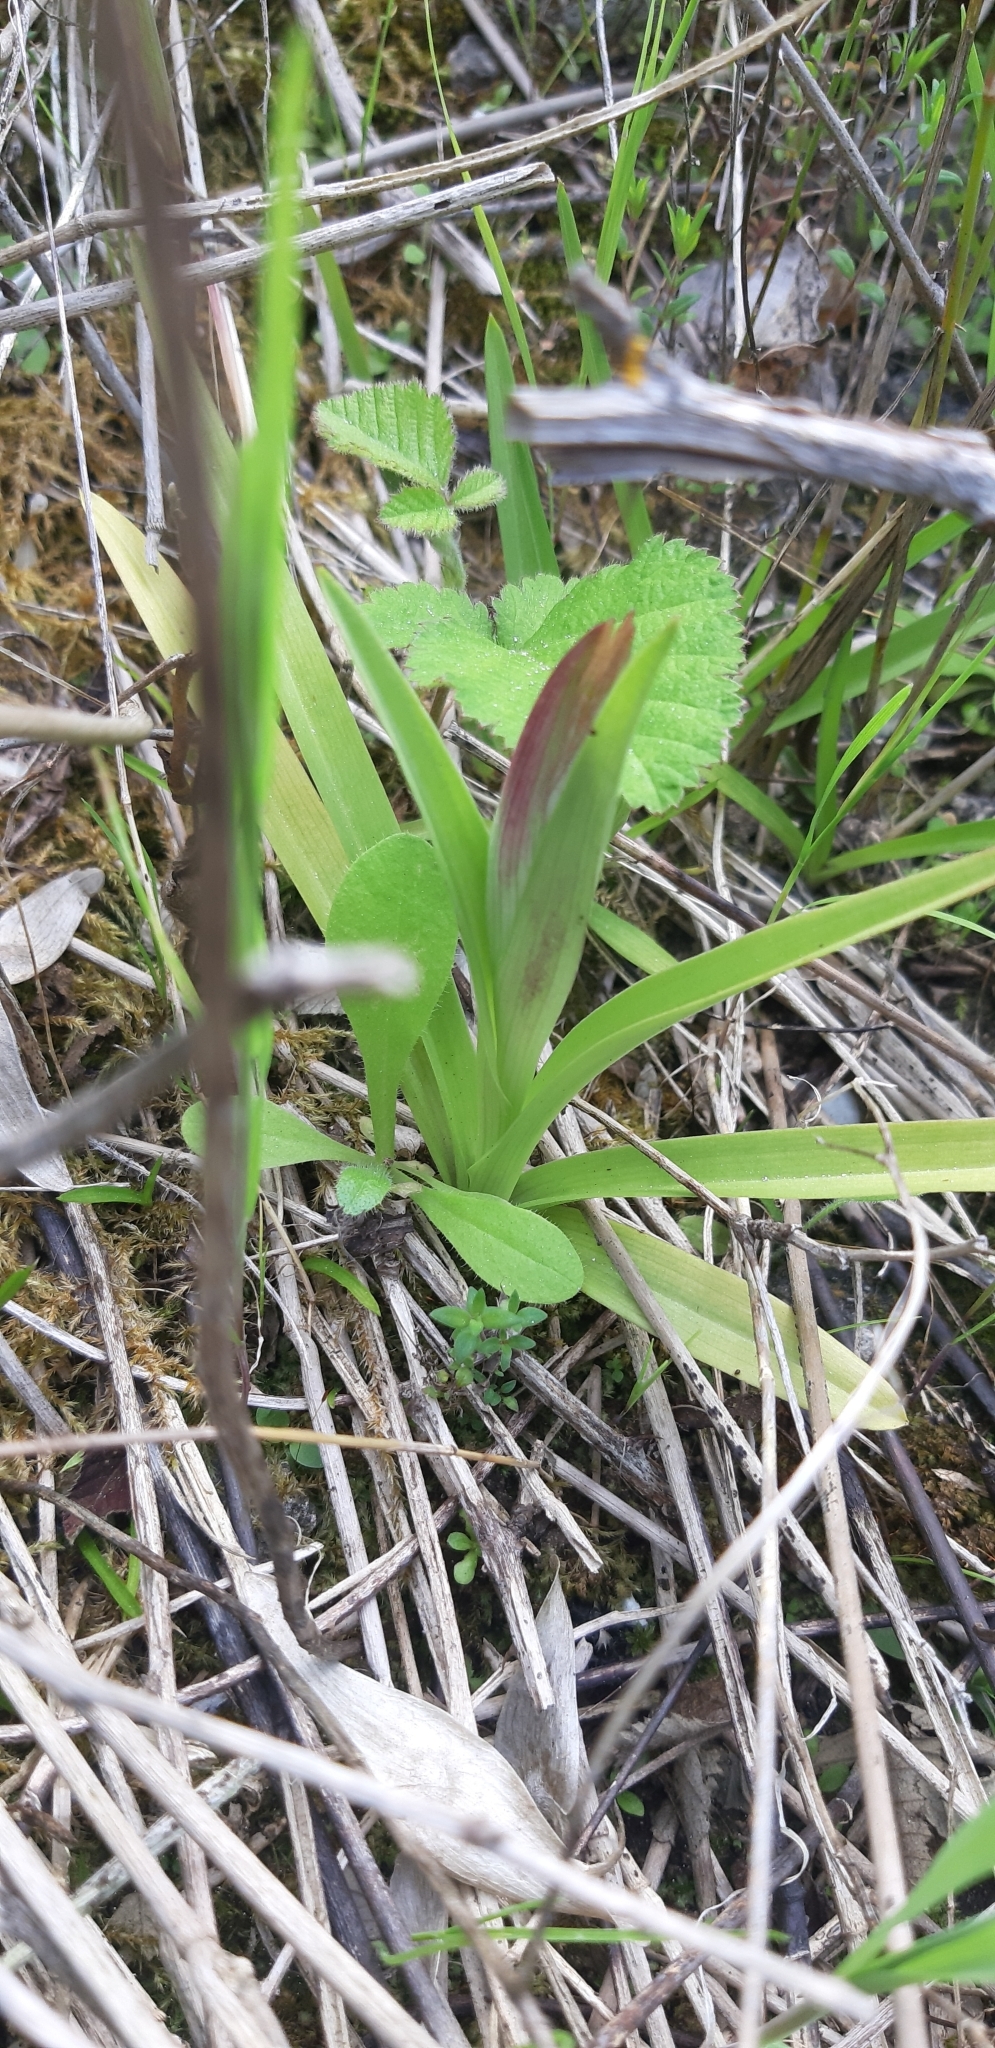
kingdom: Plantae
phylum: Tracheophyta
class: Liliopsida
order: Asparagales
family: Orchidaceae
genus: Serapias
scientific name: Serapias parviflora
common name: Small-flowered tongue-orchid
